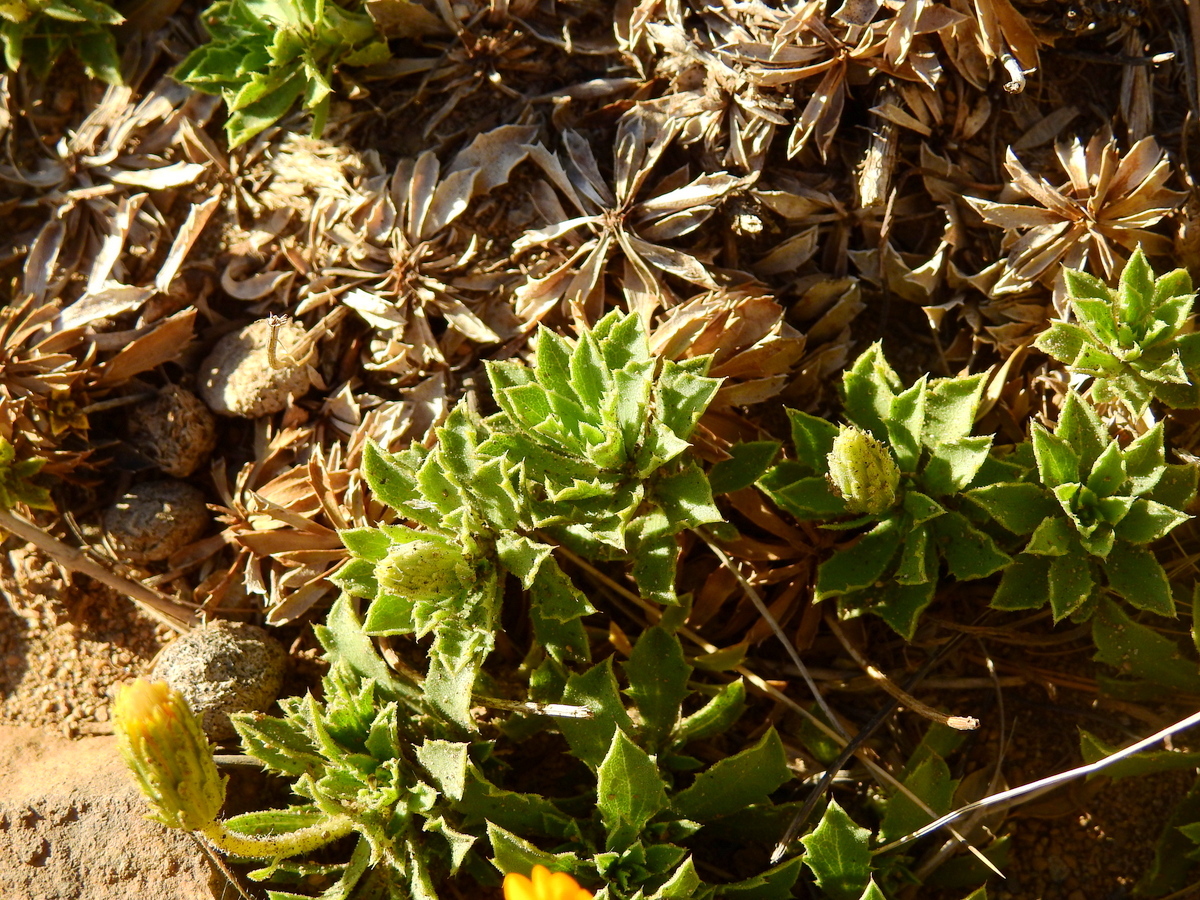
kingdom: Plantae
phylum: Tracheophyta
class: Magnoliopsida
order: Asterales
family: Asteraceae
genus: Haplopappus
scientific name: Haplopappus anthylloides
